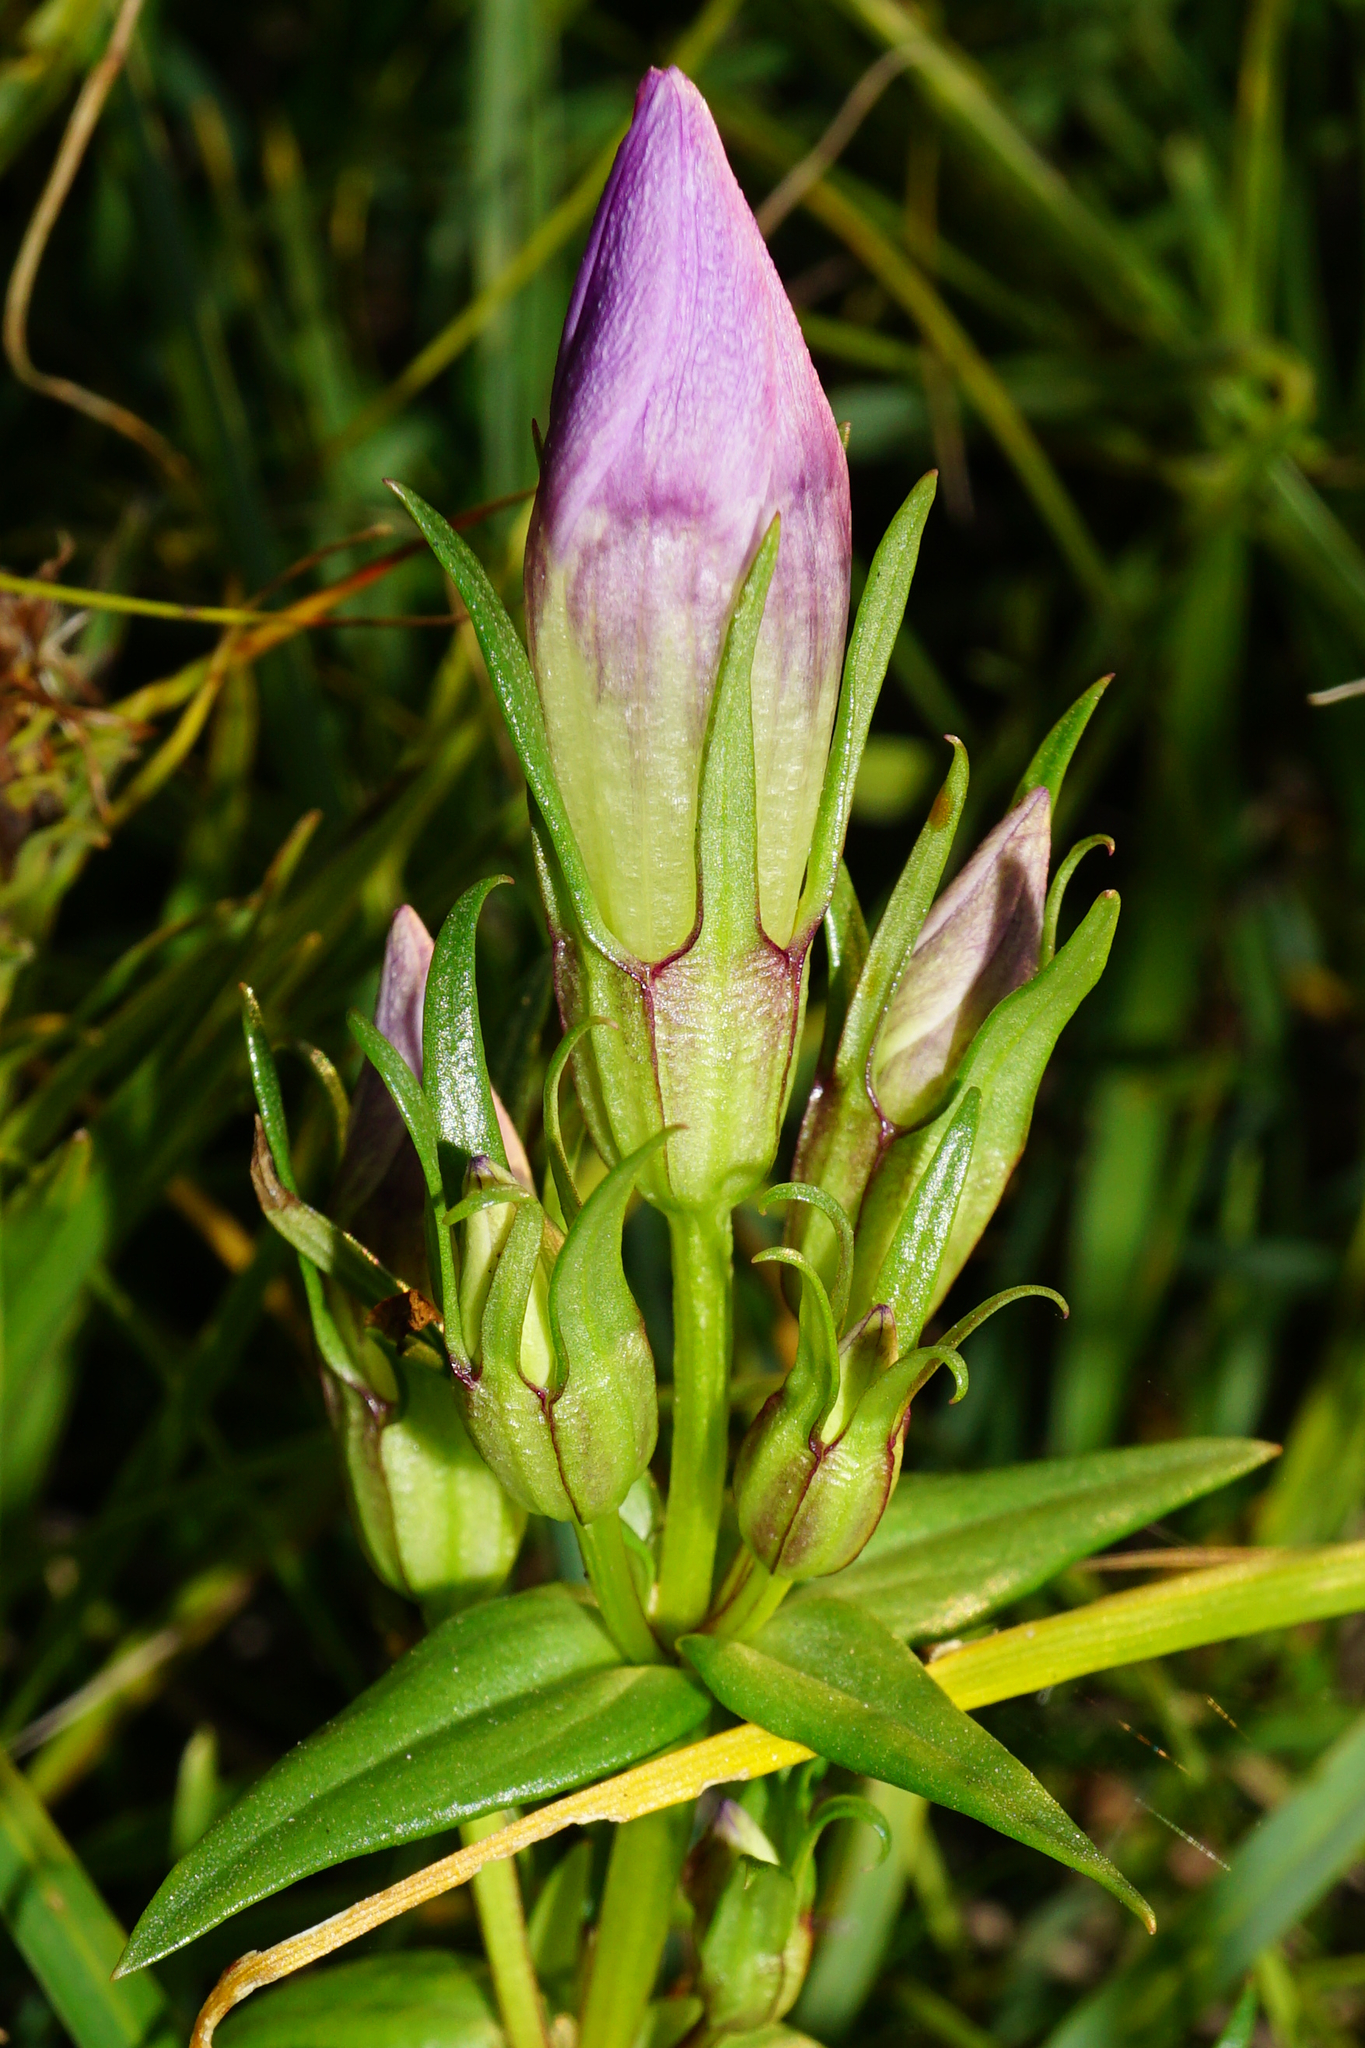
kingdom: Plantae
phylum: Tracheophyta
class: Magnoliopsida
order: Gentianales
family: Gentianaceae
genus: Gentianella
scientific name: Gentianella austriaca
